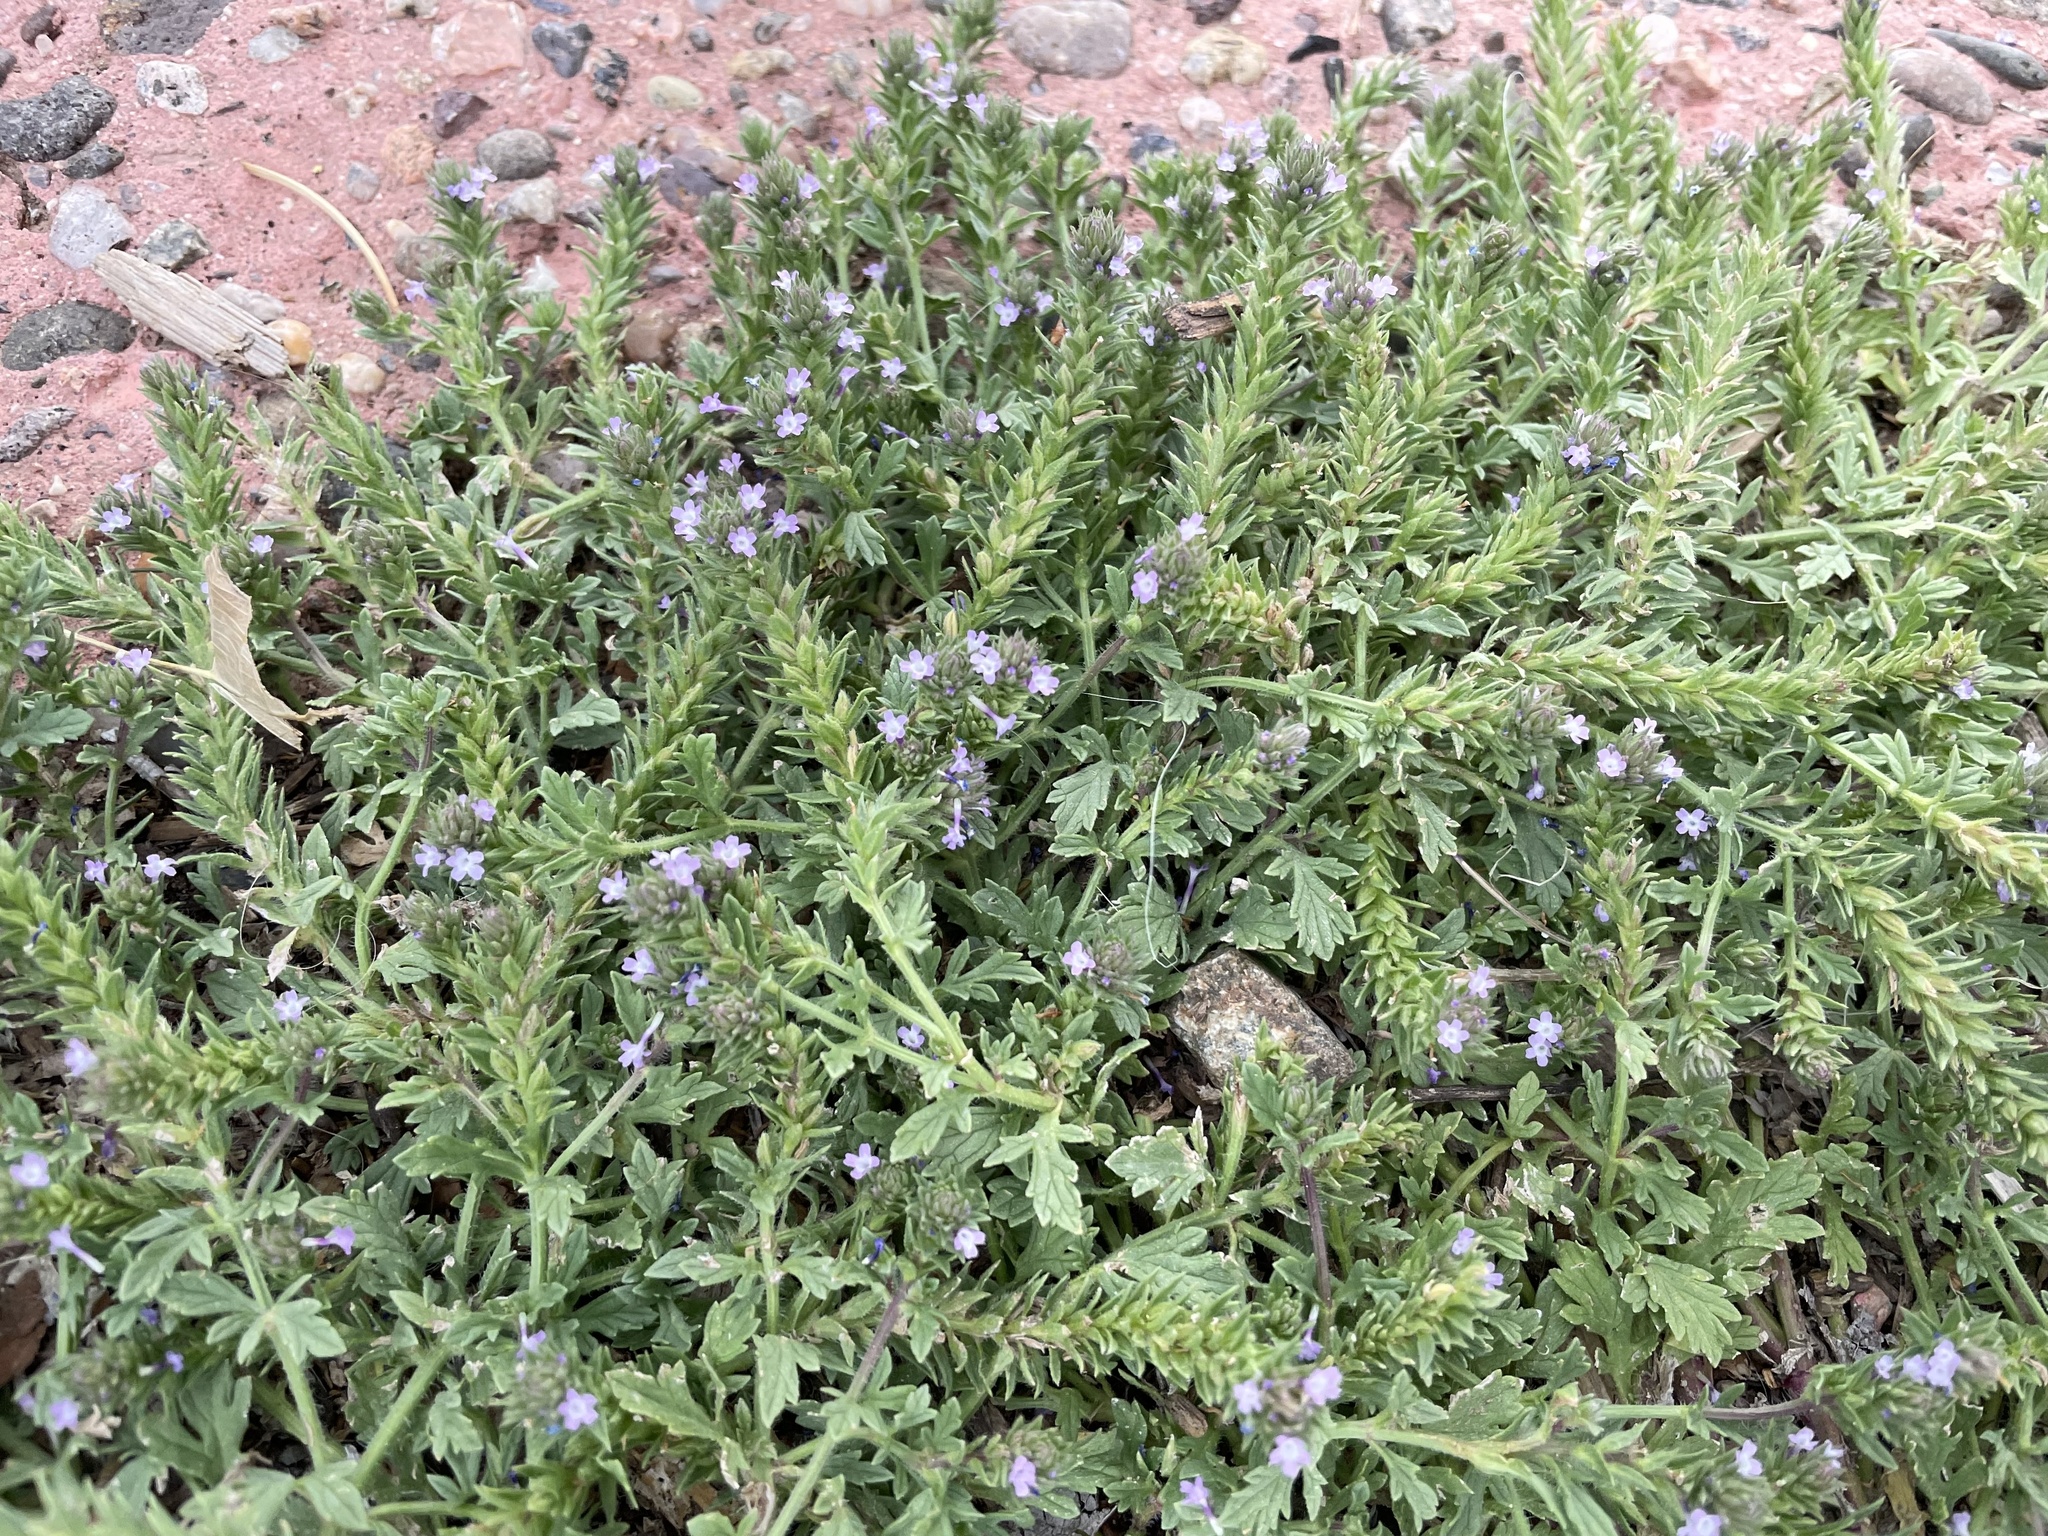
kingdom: Plantae
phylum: Tracheophyta
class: Magnoliopsida
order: Lamiales
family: Verbenaceae
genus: Verbena
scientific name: Verbena bracteata
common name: Bracted vervain
